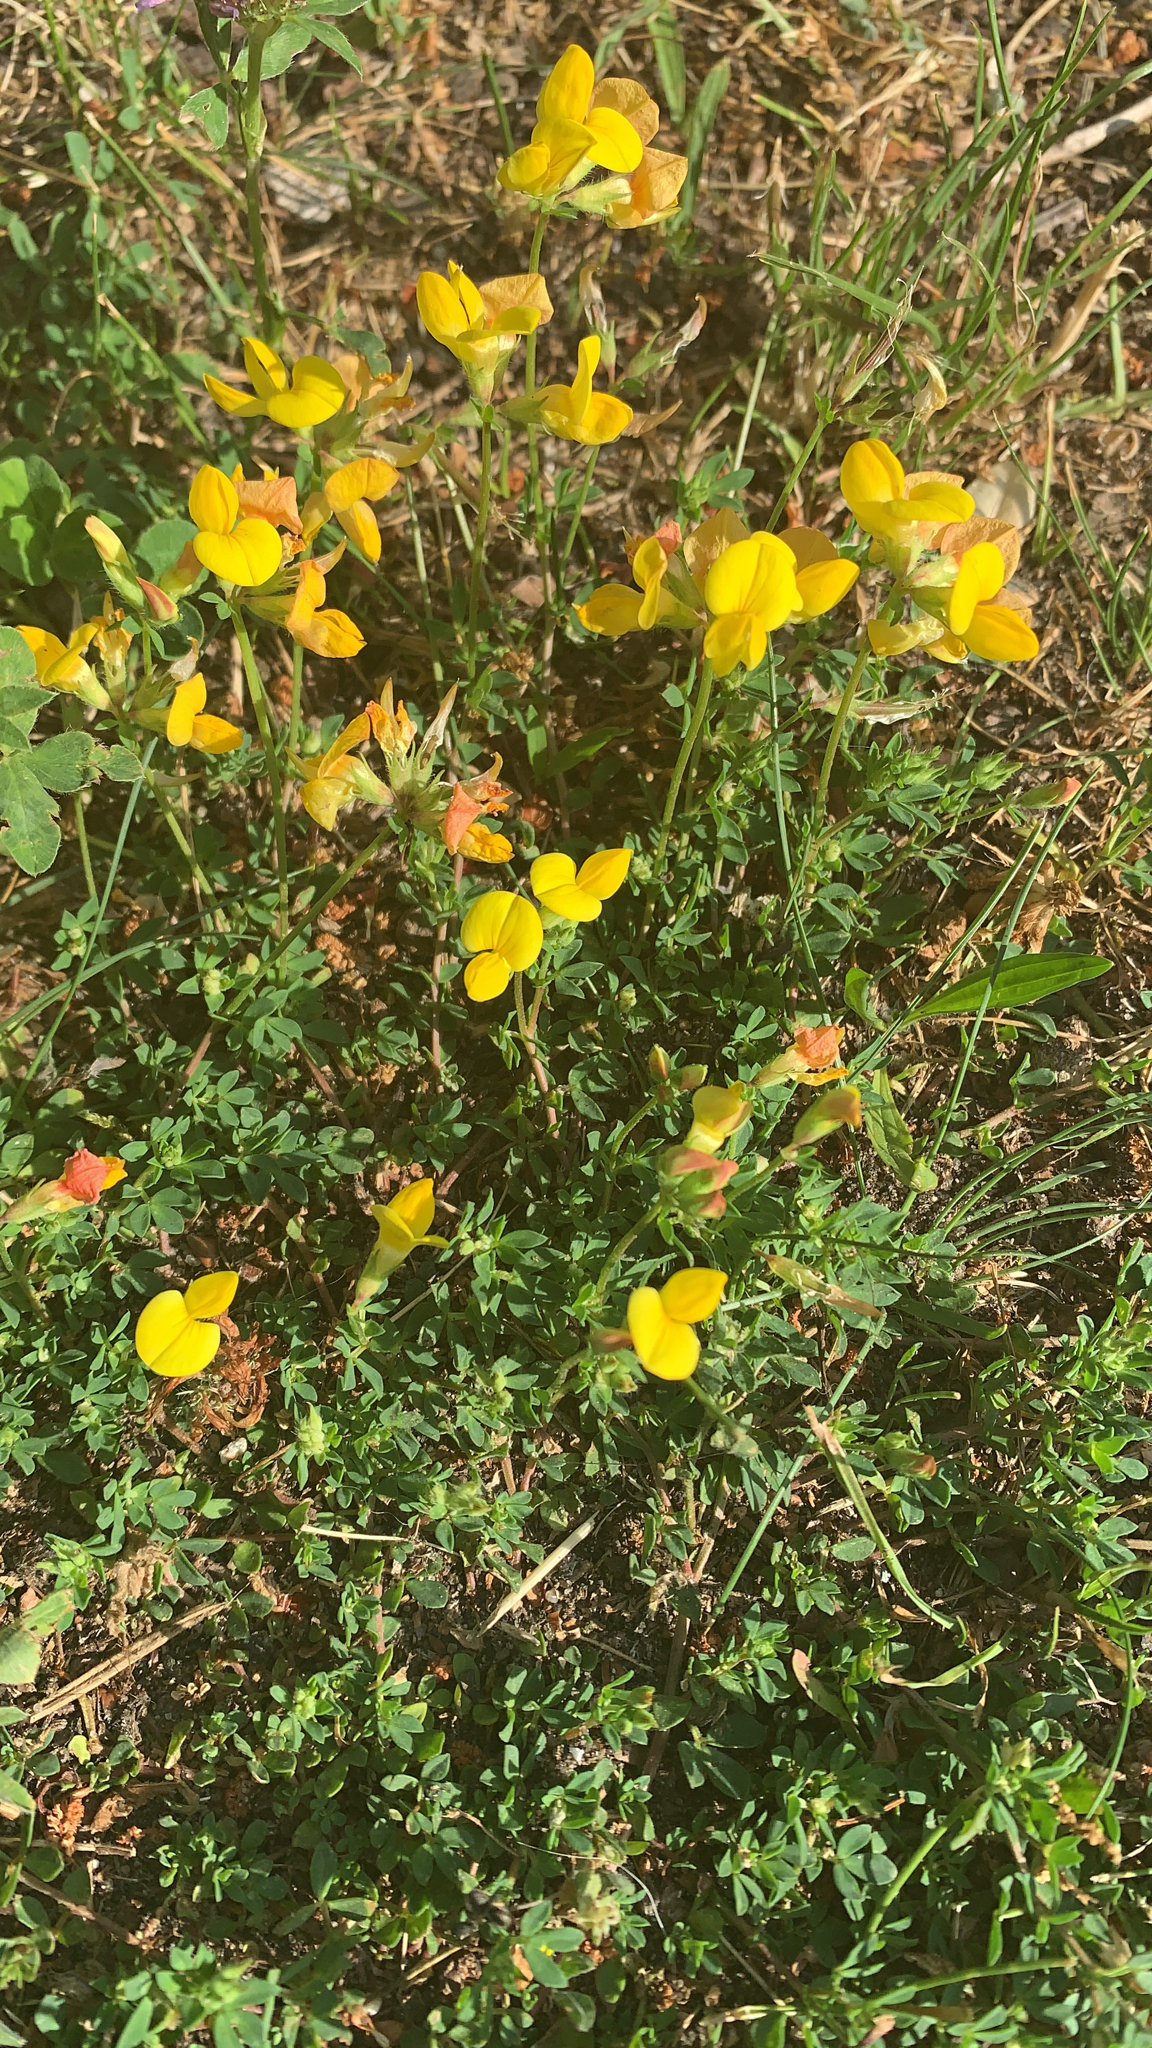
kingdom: Plantae
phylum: Tracheophyta
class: Magnoliopsida
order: Fabales
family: Fabaceae
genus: Lotus
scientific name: Lotus corniculatus
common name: Common bird's-foot-trefoil
